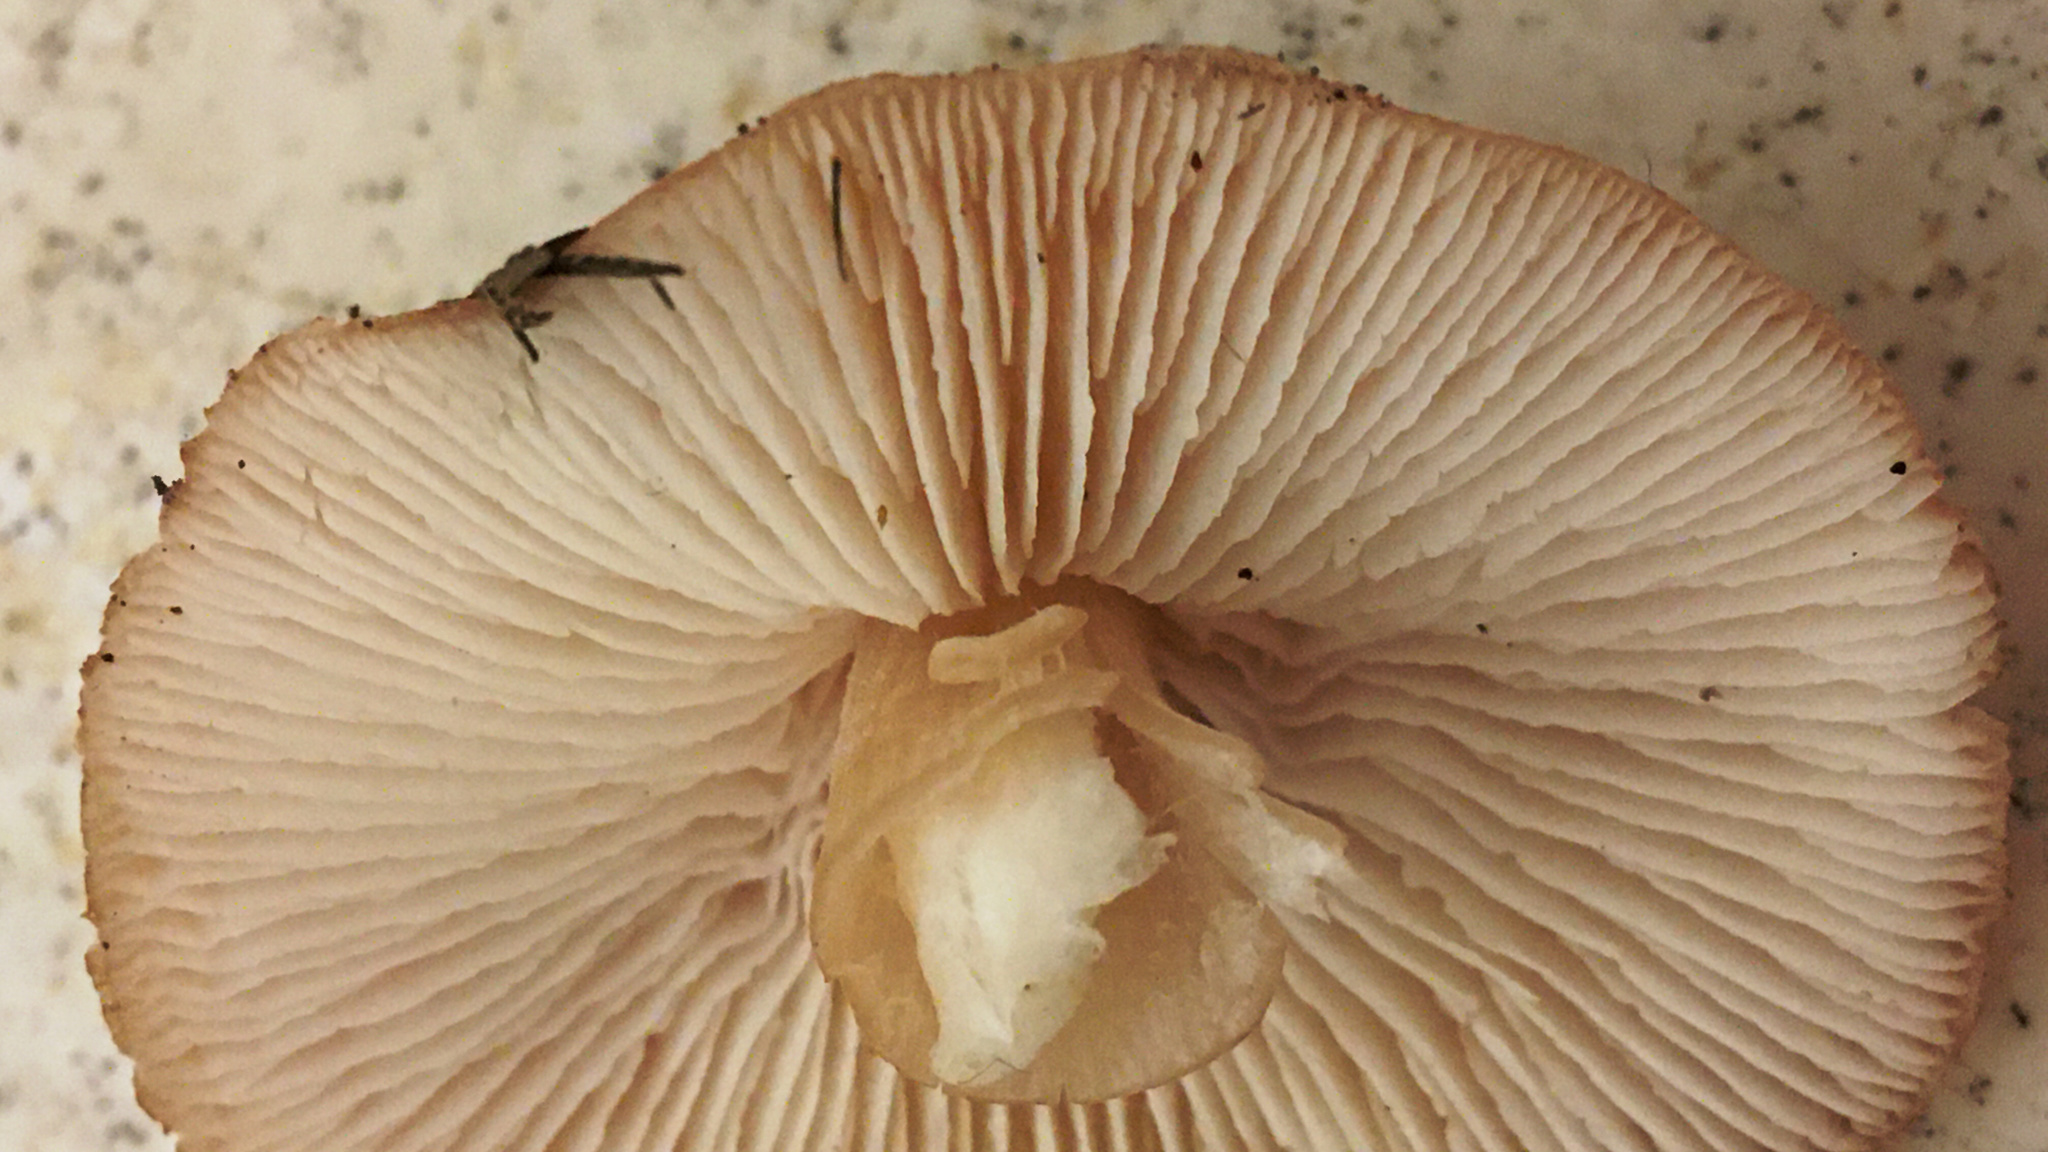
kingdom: Fungi
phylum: Basidiomycota
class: Agaricomycetes
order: Agaricales
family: Omphalotaceae
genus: Rhodocollybia
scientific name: Rhodocollybia butyracea
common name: Butter cap
